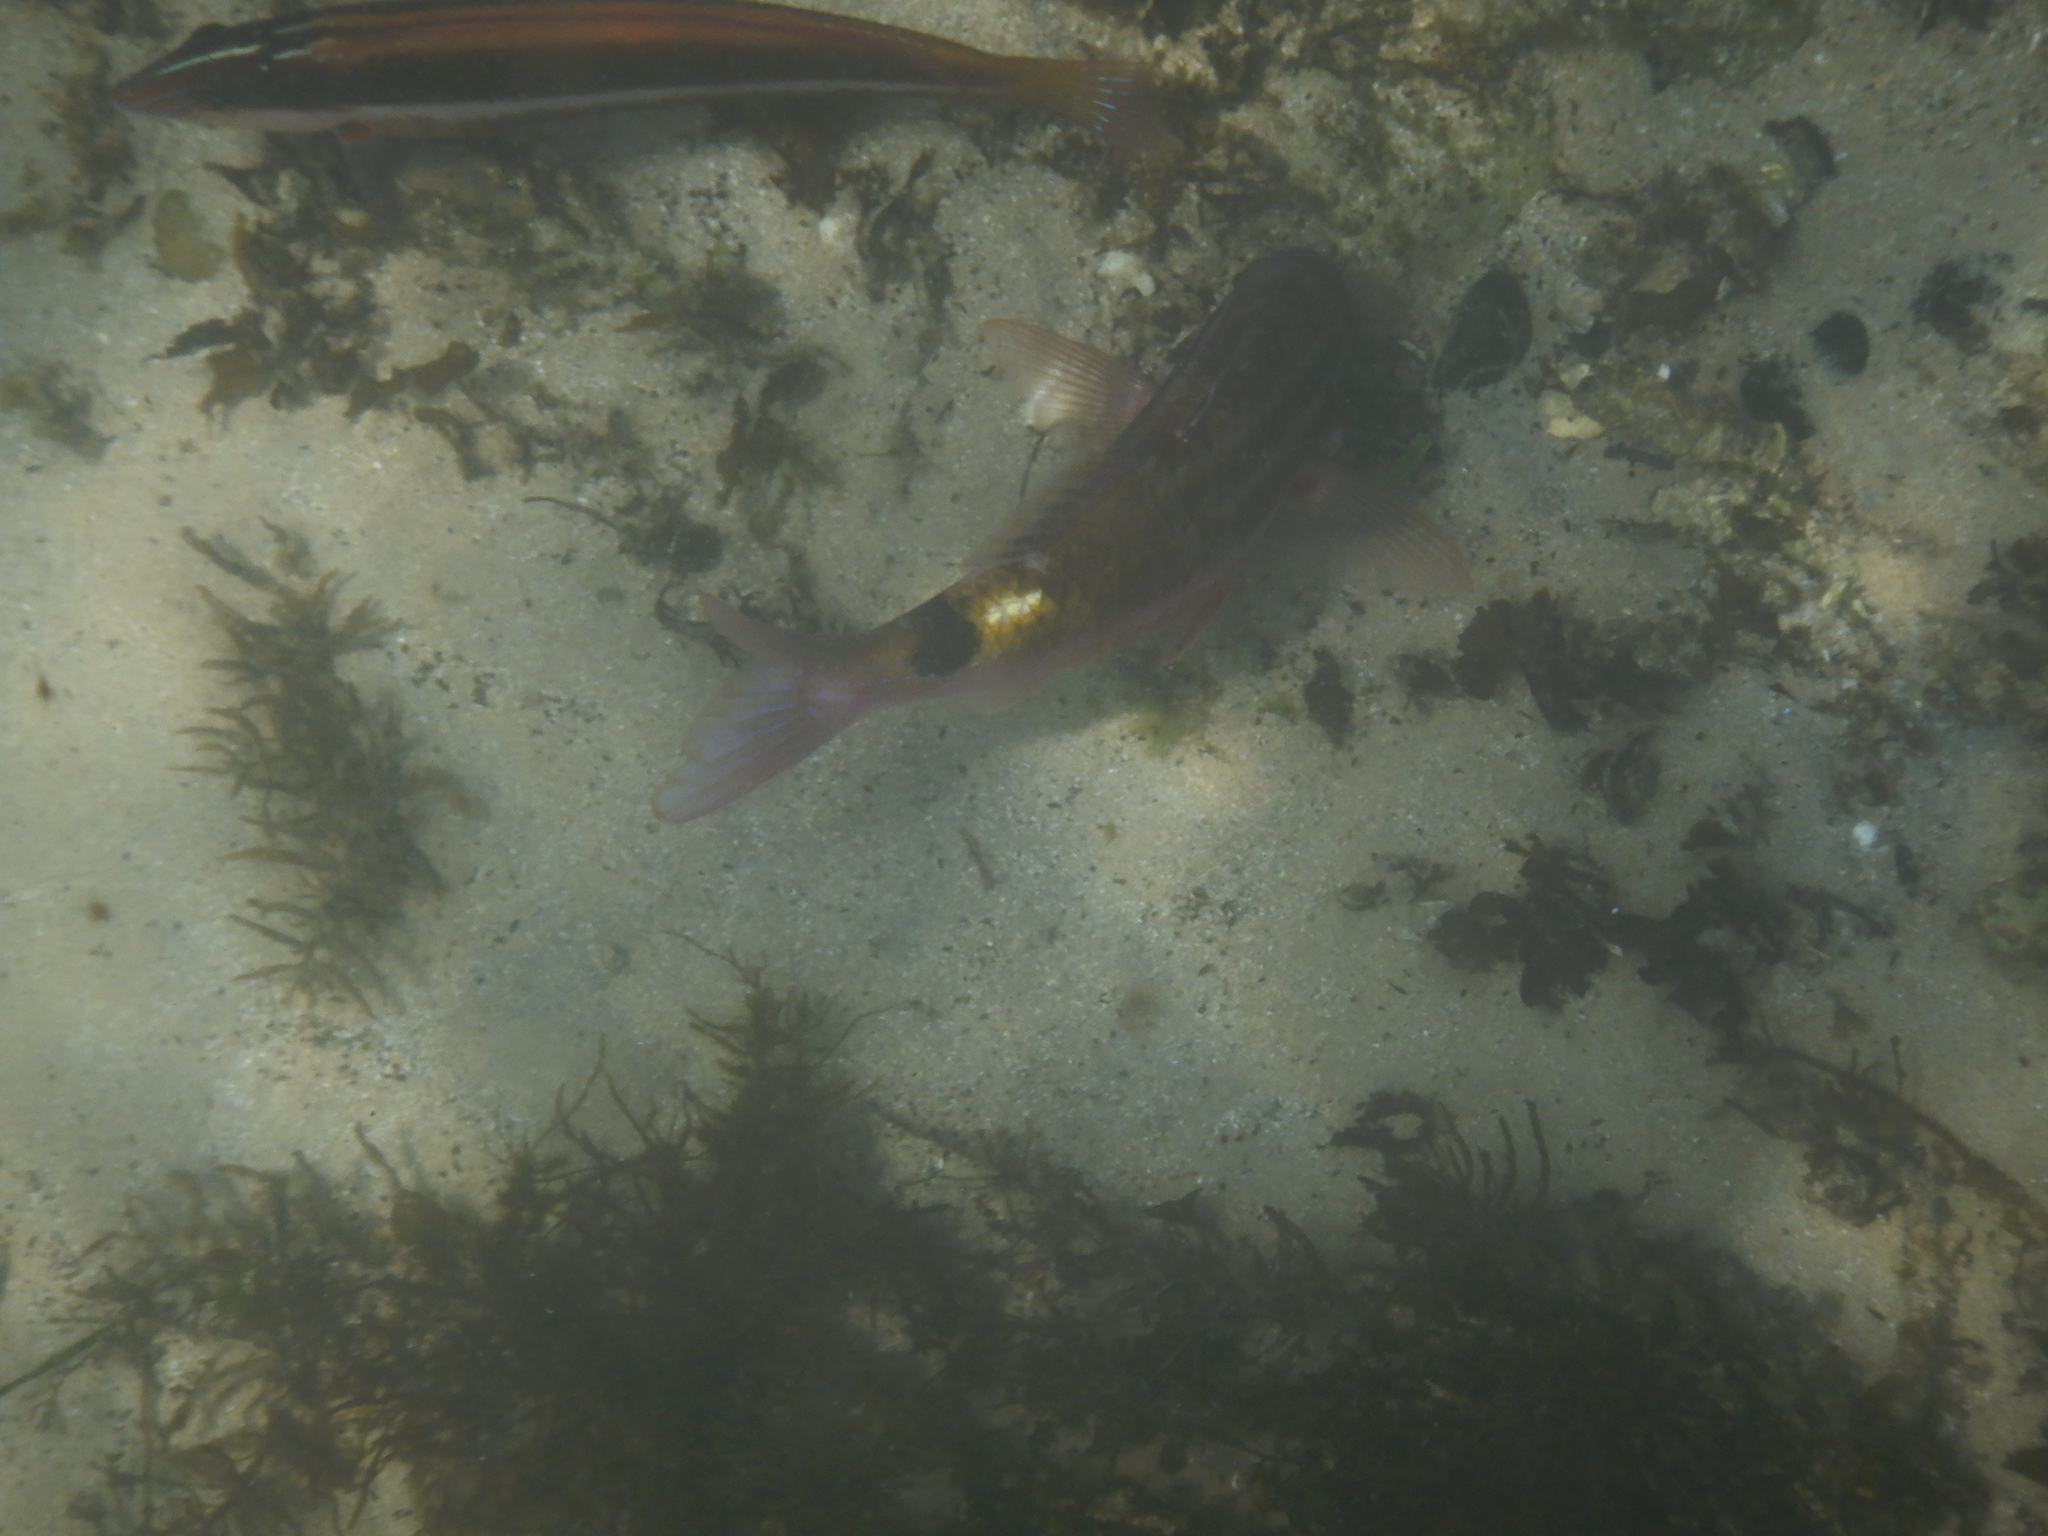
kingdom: Animalia
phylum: Chordata
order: Perciformes
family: Mullidae
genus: Parupeneus
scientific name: Parupeneus spilurus
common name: Blackspot goatfish
